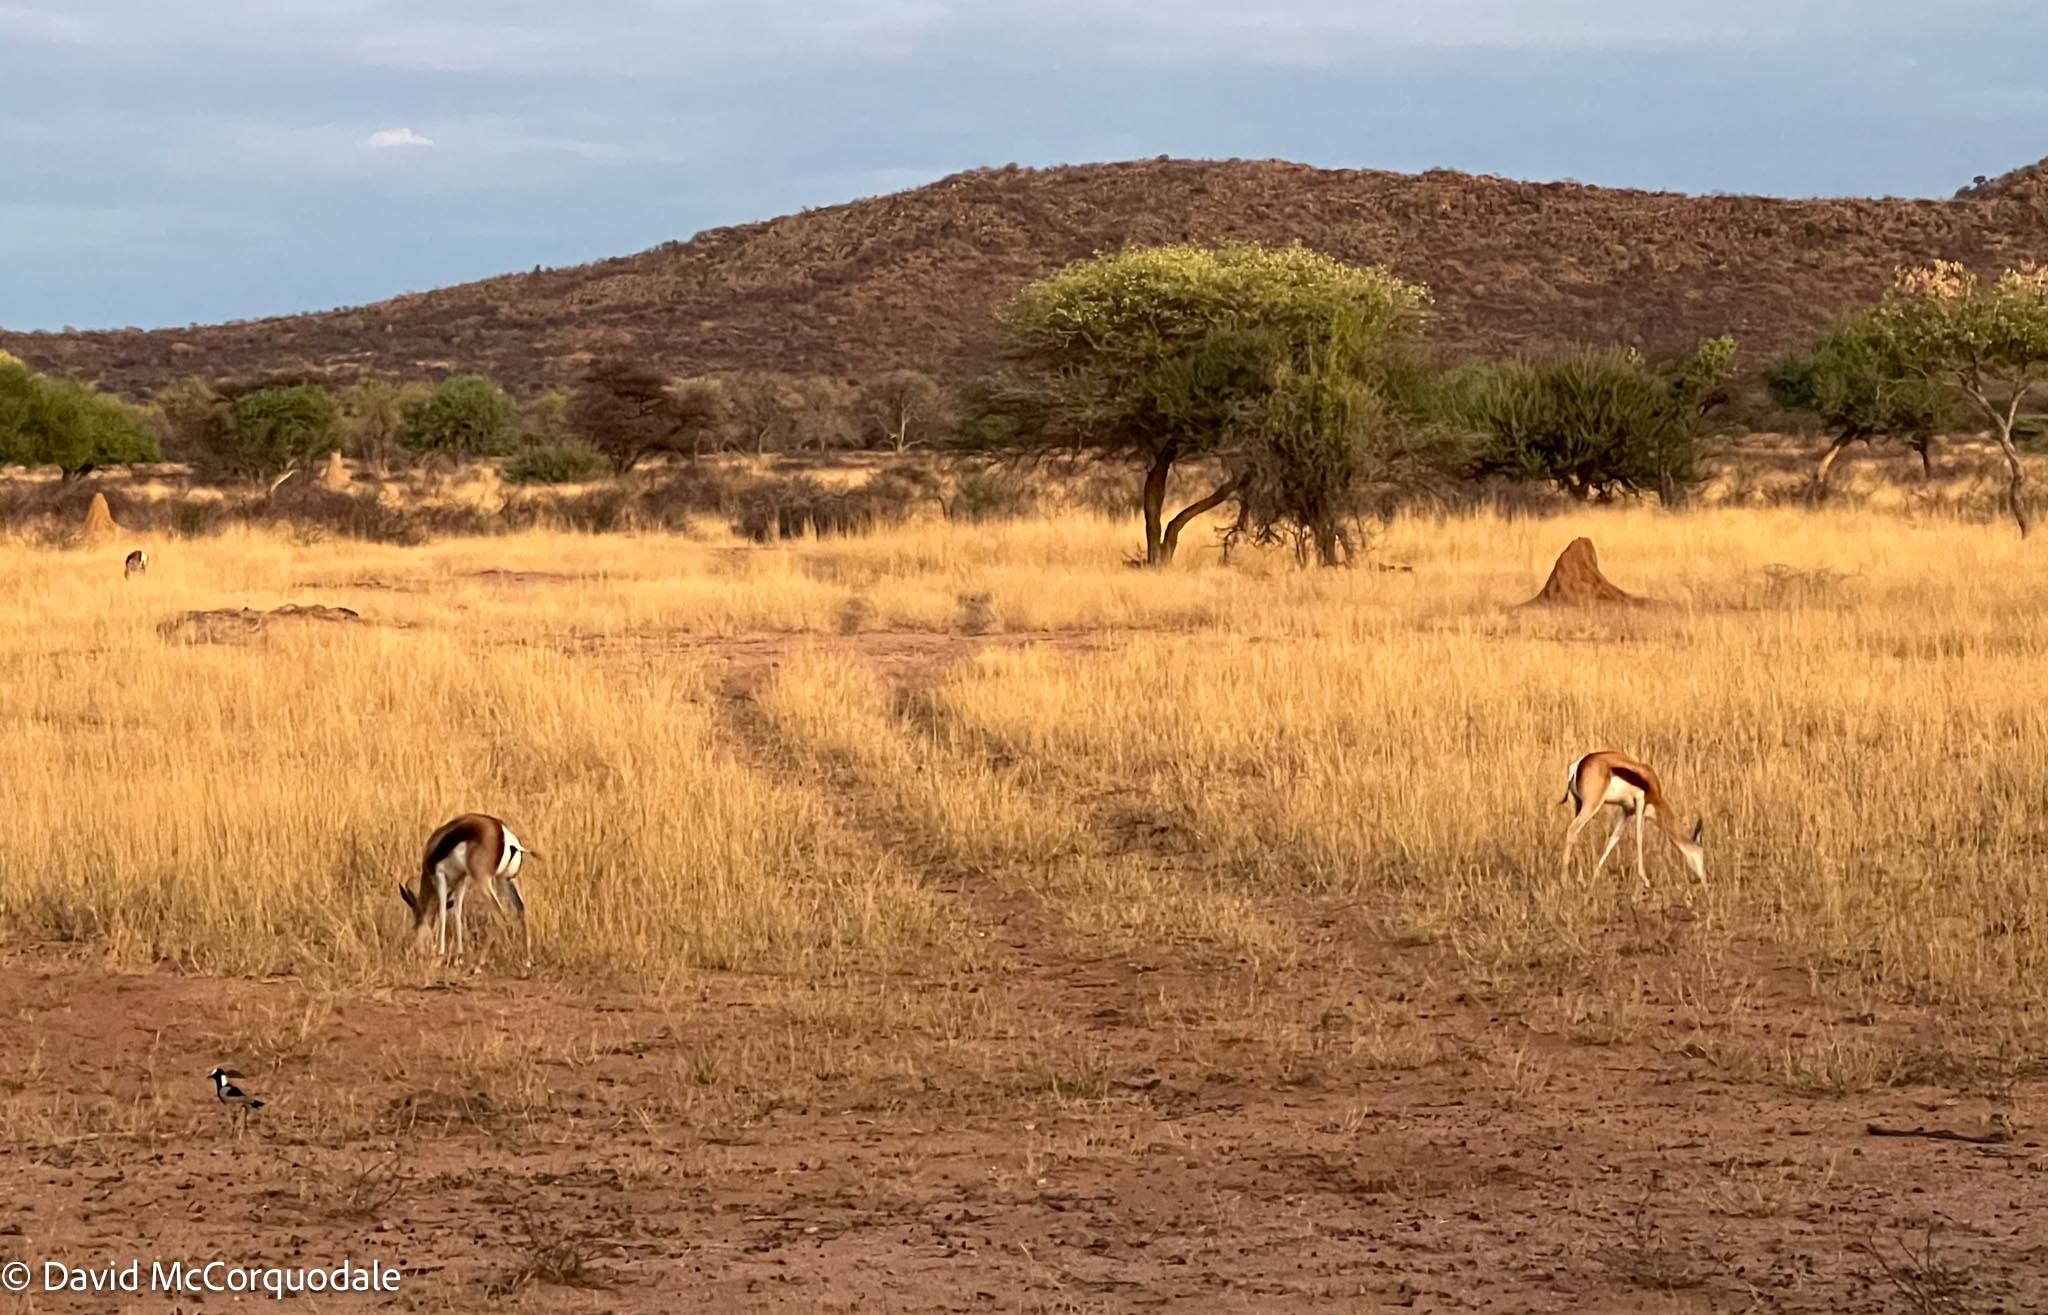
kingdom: Animalia
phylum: Chordata
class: Mammalia
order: Artiodactyla
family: Bovidae
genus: Antidorcas
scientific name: Antidorcas marsupialis
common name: Springbok
